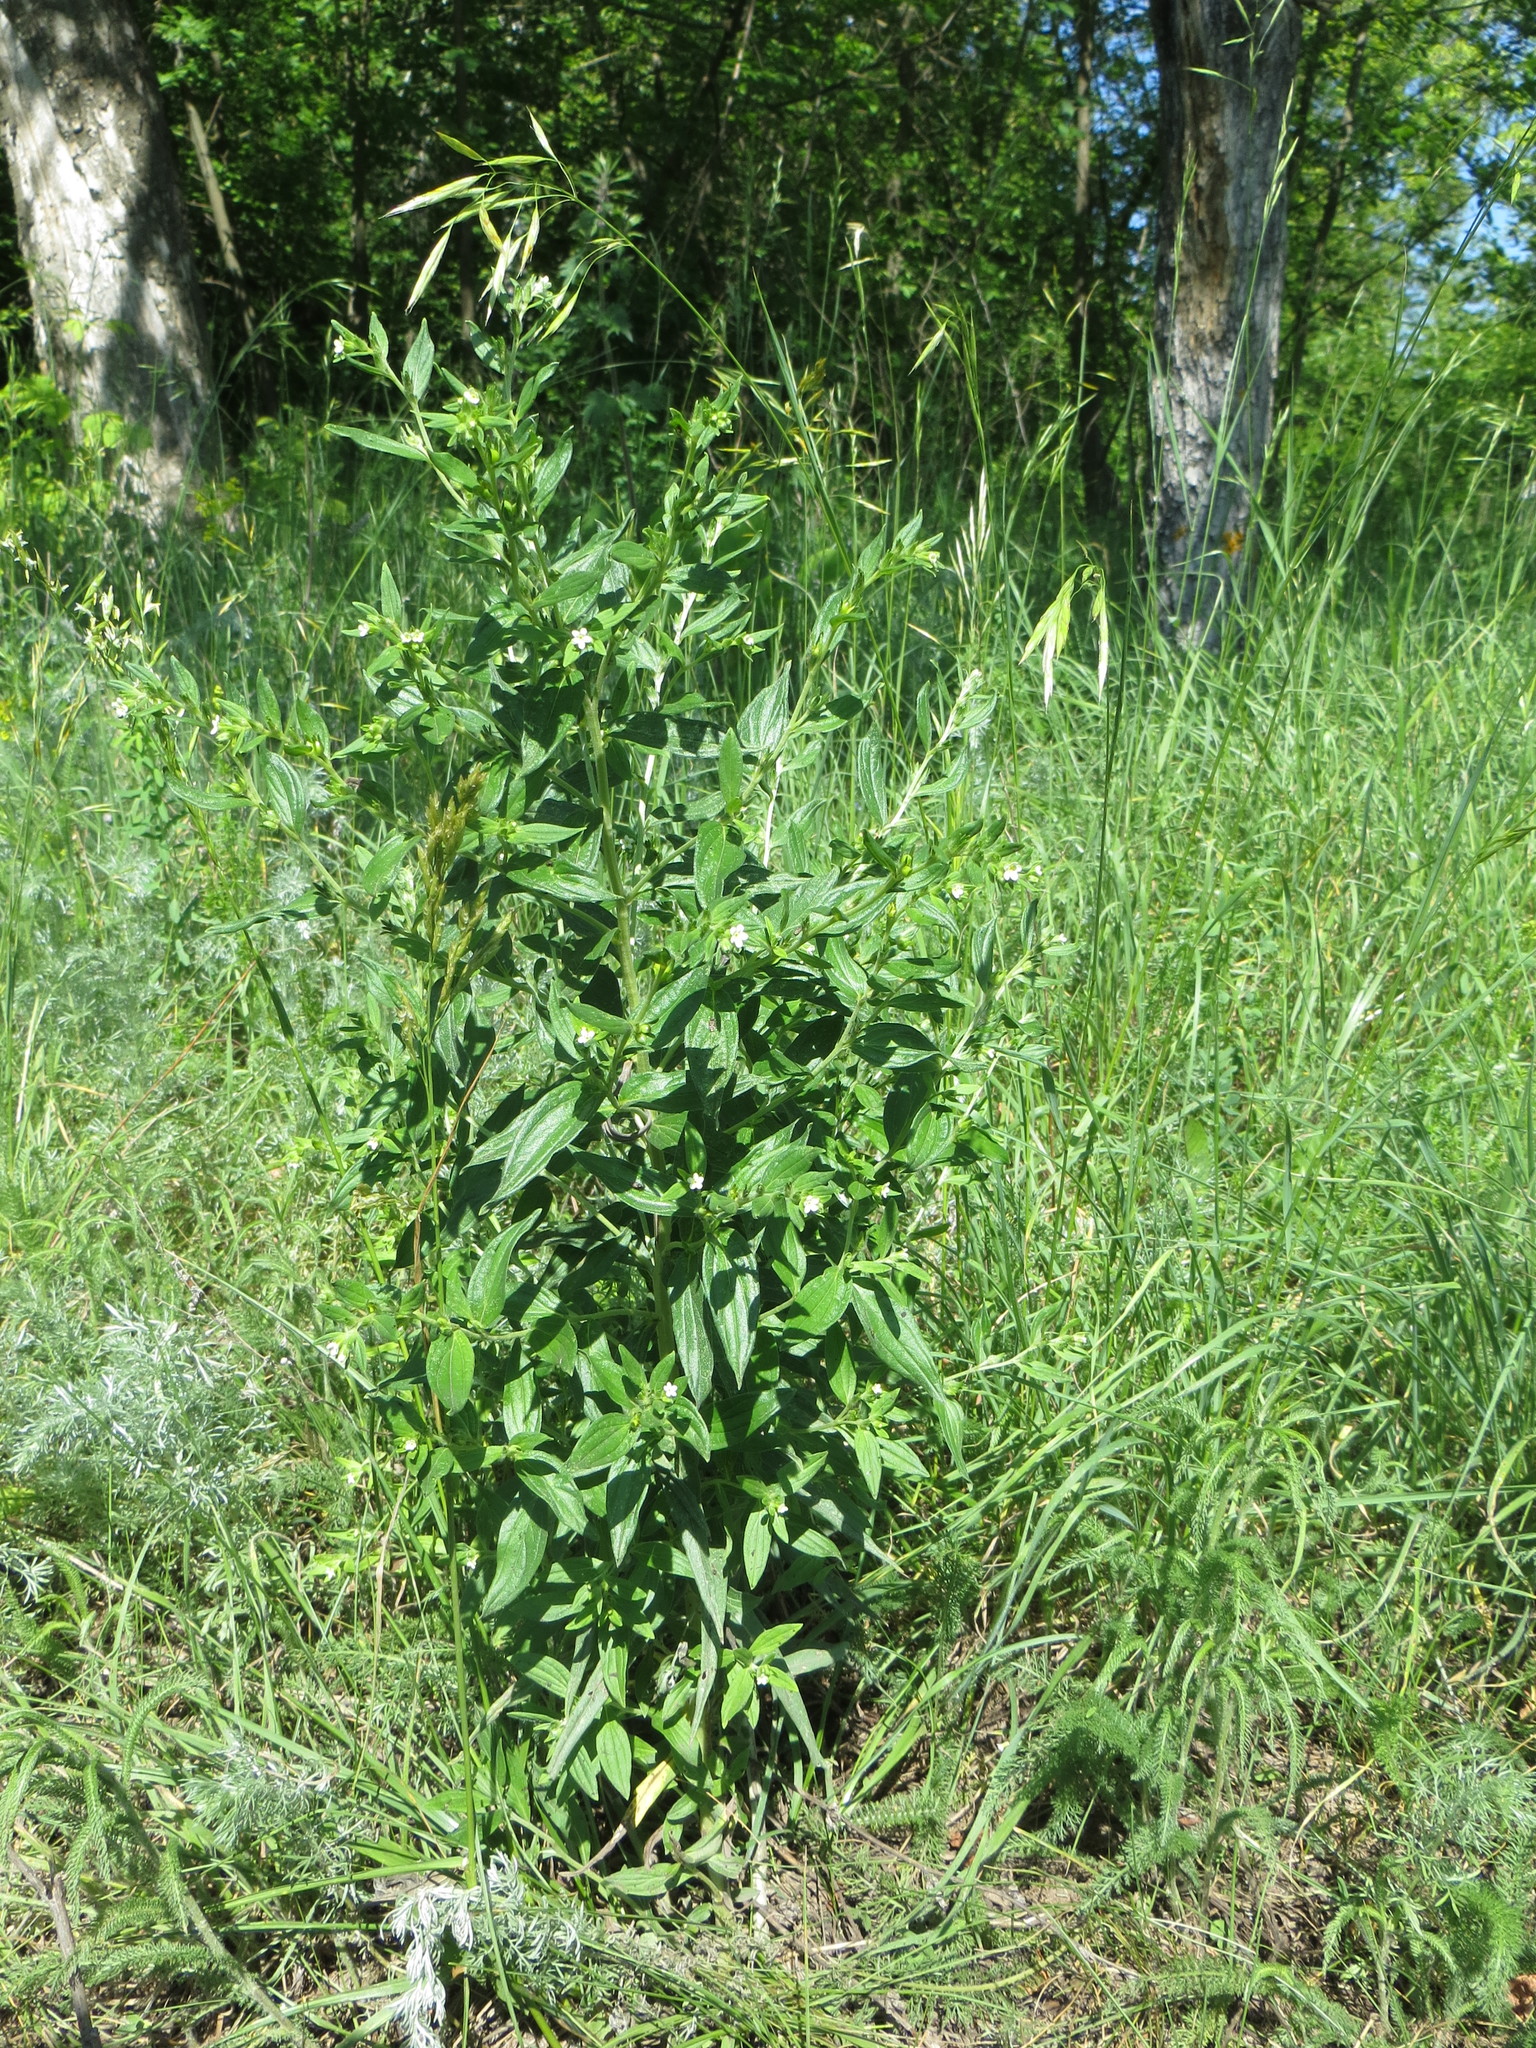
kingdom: Plantae
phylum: Tracheophyta
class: Magnoliopsida
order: Boraginales
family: Boraginaceae
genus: Lithospermum
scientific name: Lithospermum officinale
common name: Common gromwell
